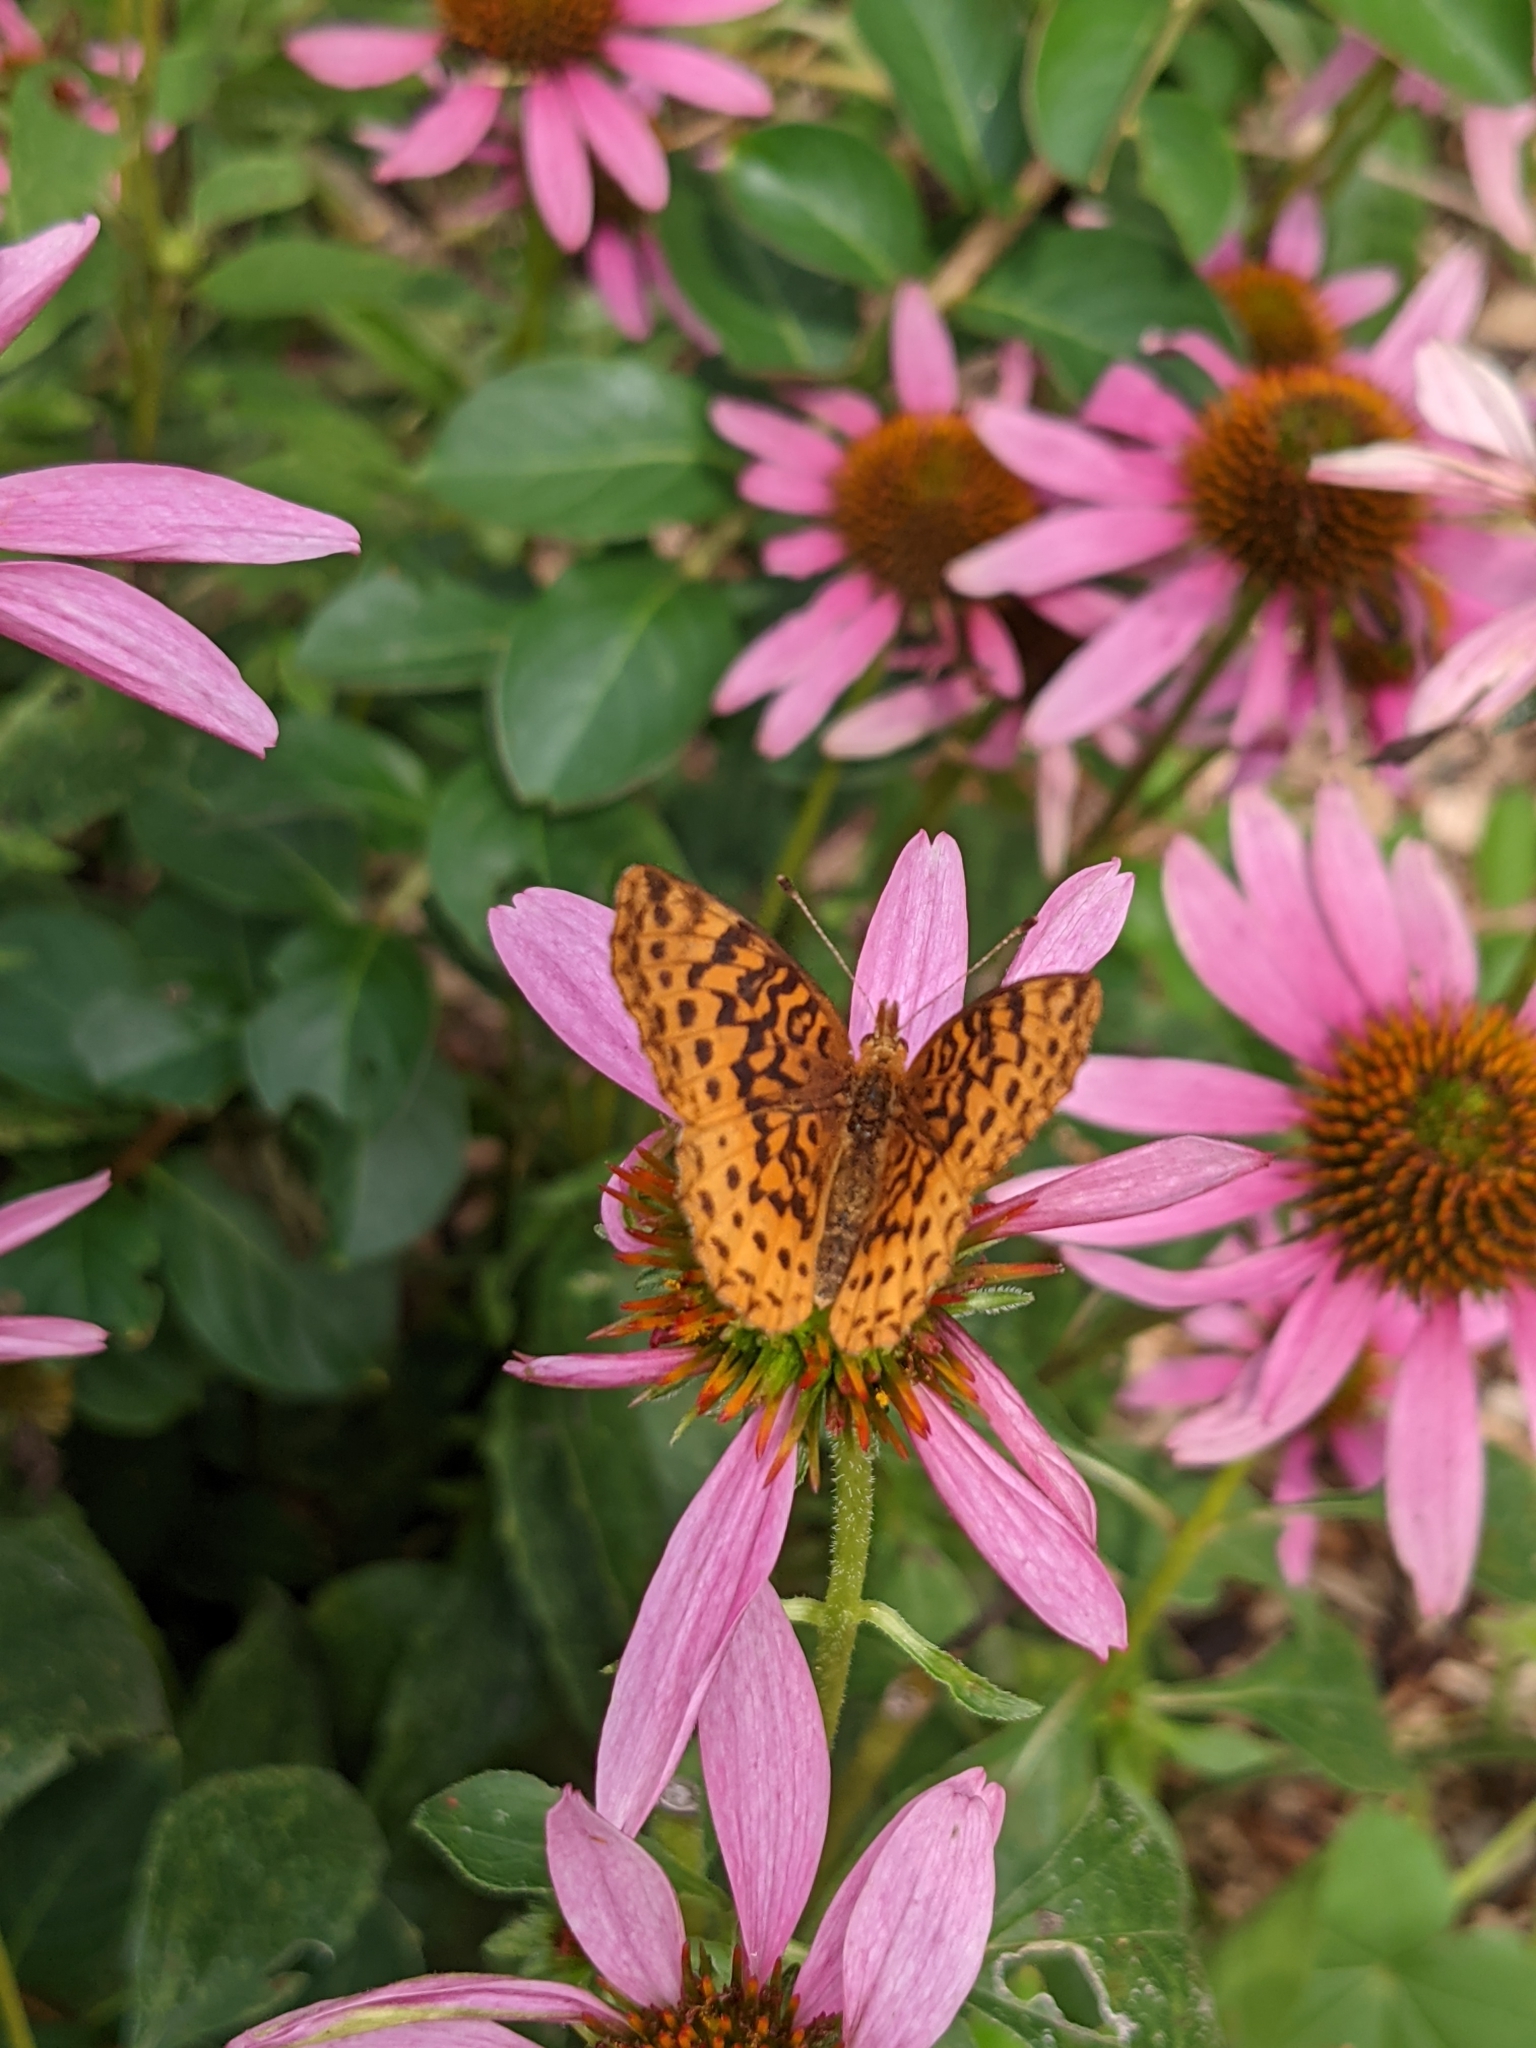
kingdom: Animalia
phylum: Arthropoda
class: Insecta
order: Lepidoptera
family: Nymphalidae
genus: Clossiana
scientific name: Clossiana toddi
